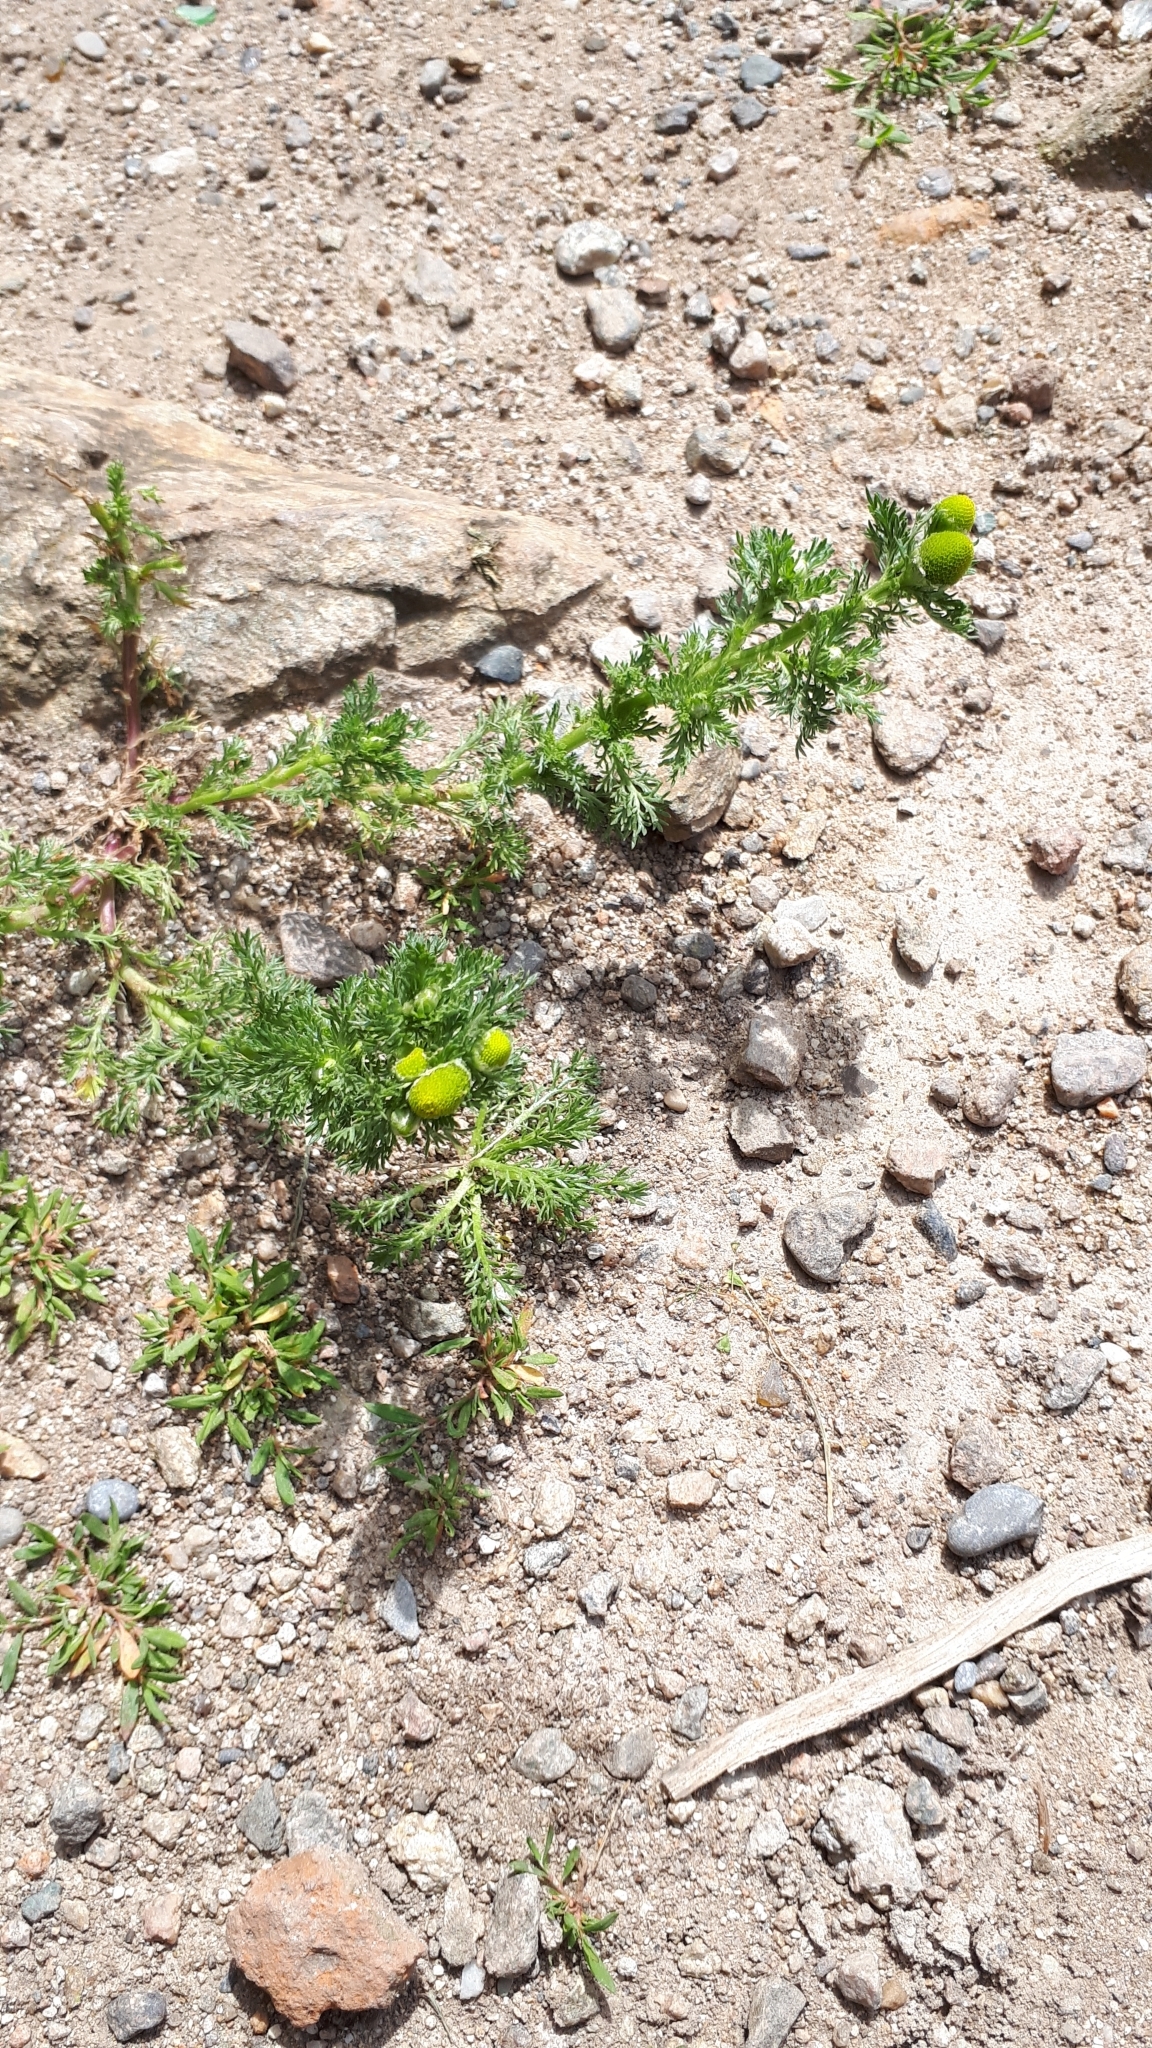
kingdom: Plantae
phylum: Tracheophyta
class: Magnoliopsida
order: Asterales
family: Asteraceae
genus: Matricaria
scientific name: Matricaria discoidea
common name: Disc mayweed
